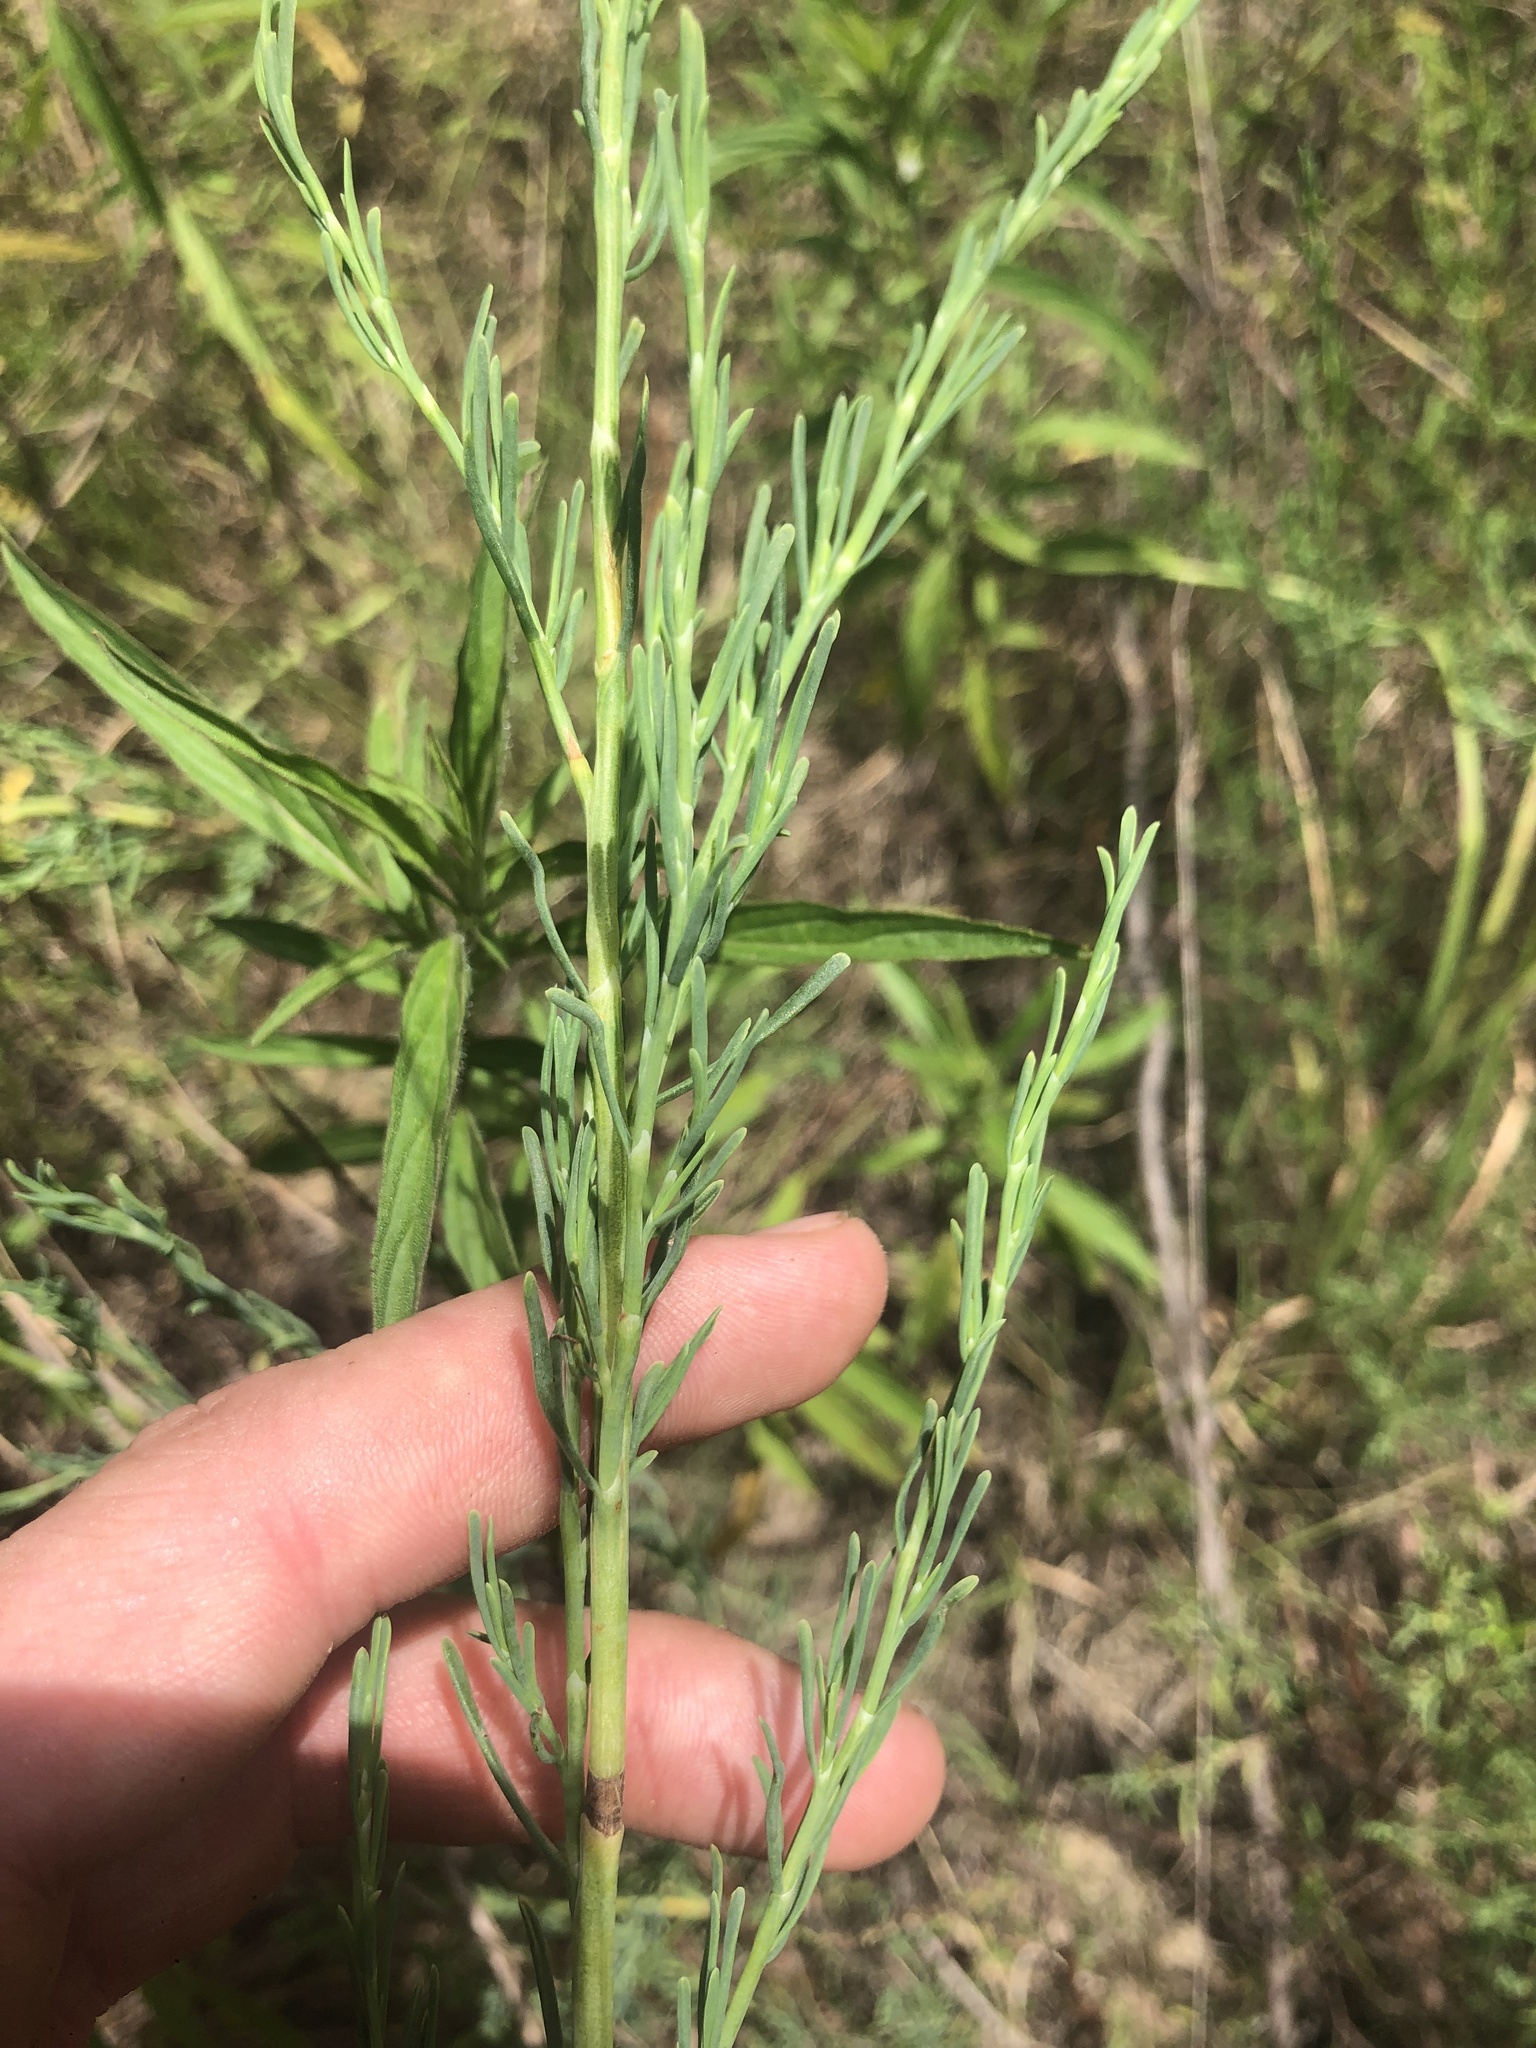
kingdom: Plantae
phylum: Tracheophyta
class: Magnoliopsida
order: Caryophyllales
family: Polygonaceae
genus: Polygonella
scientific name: Polygonella americana
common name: Southern jointweed
